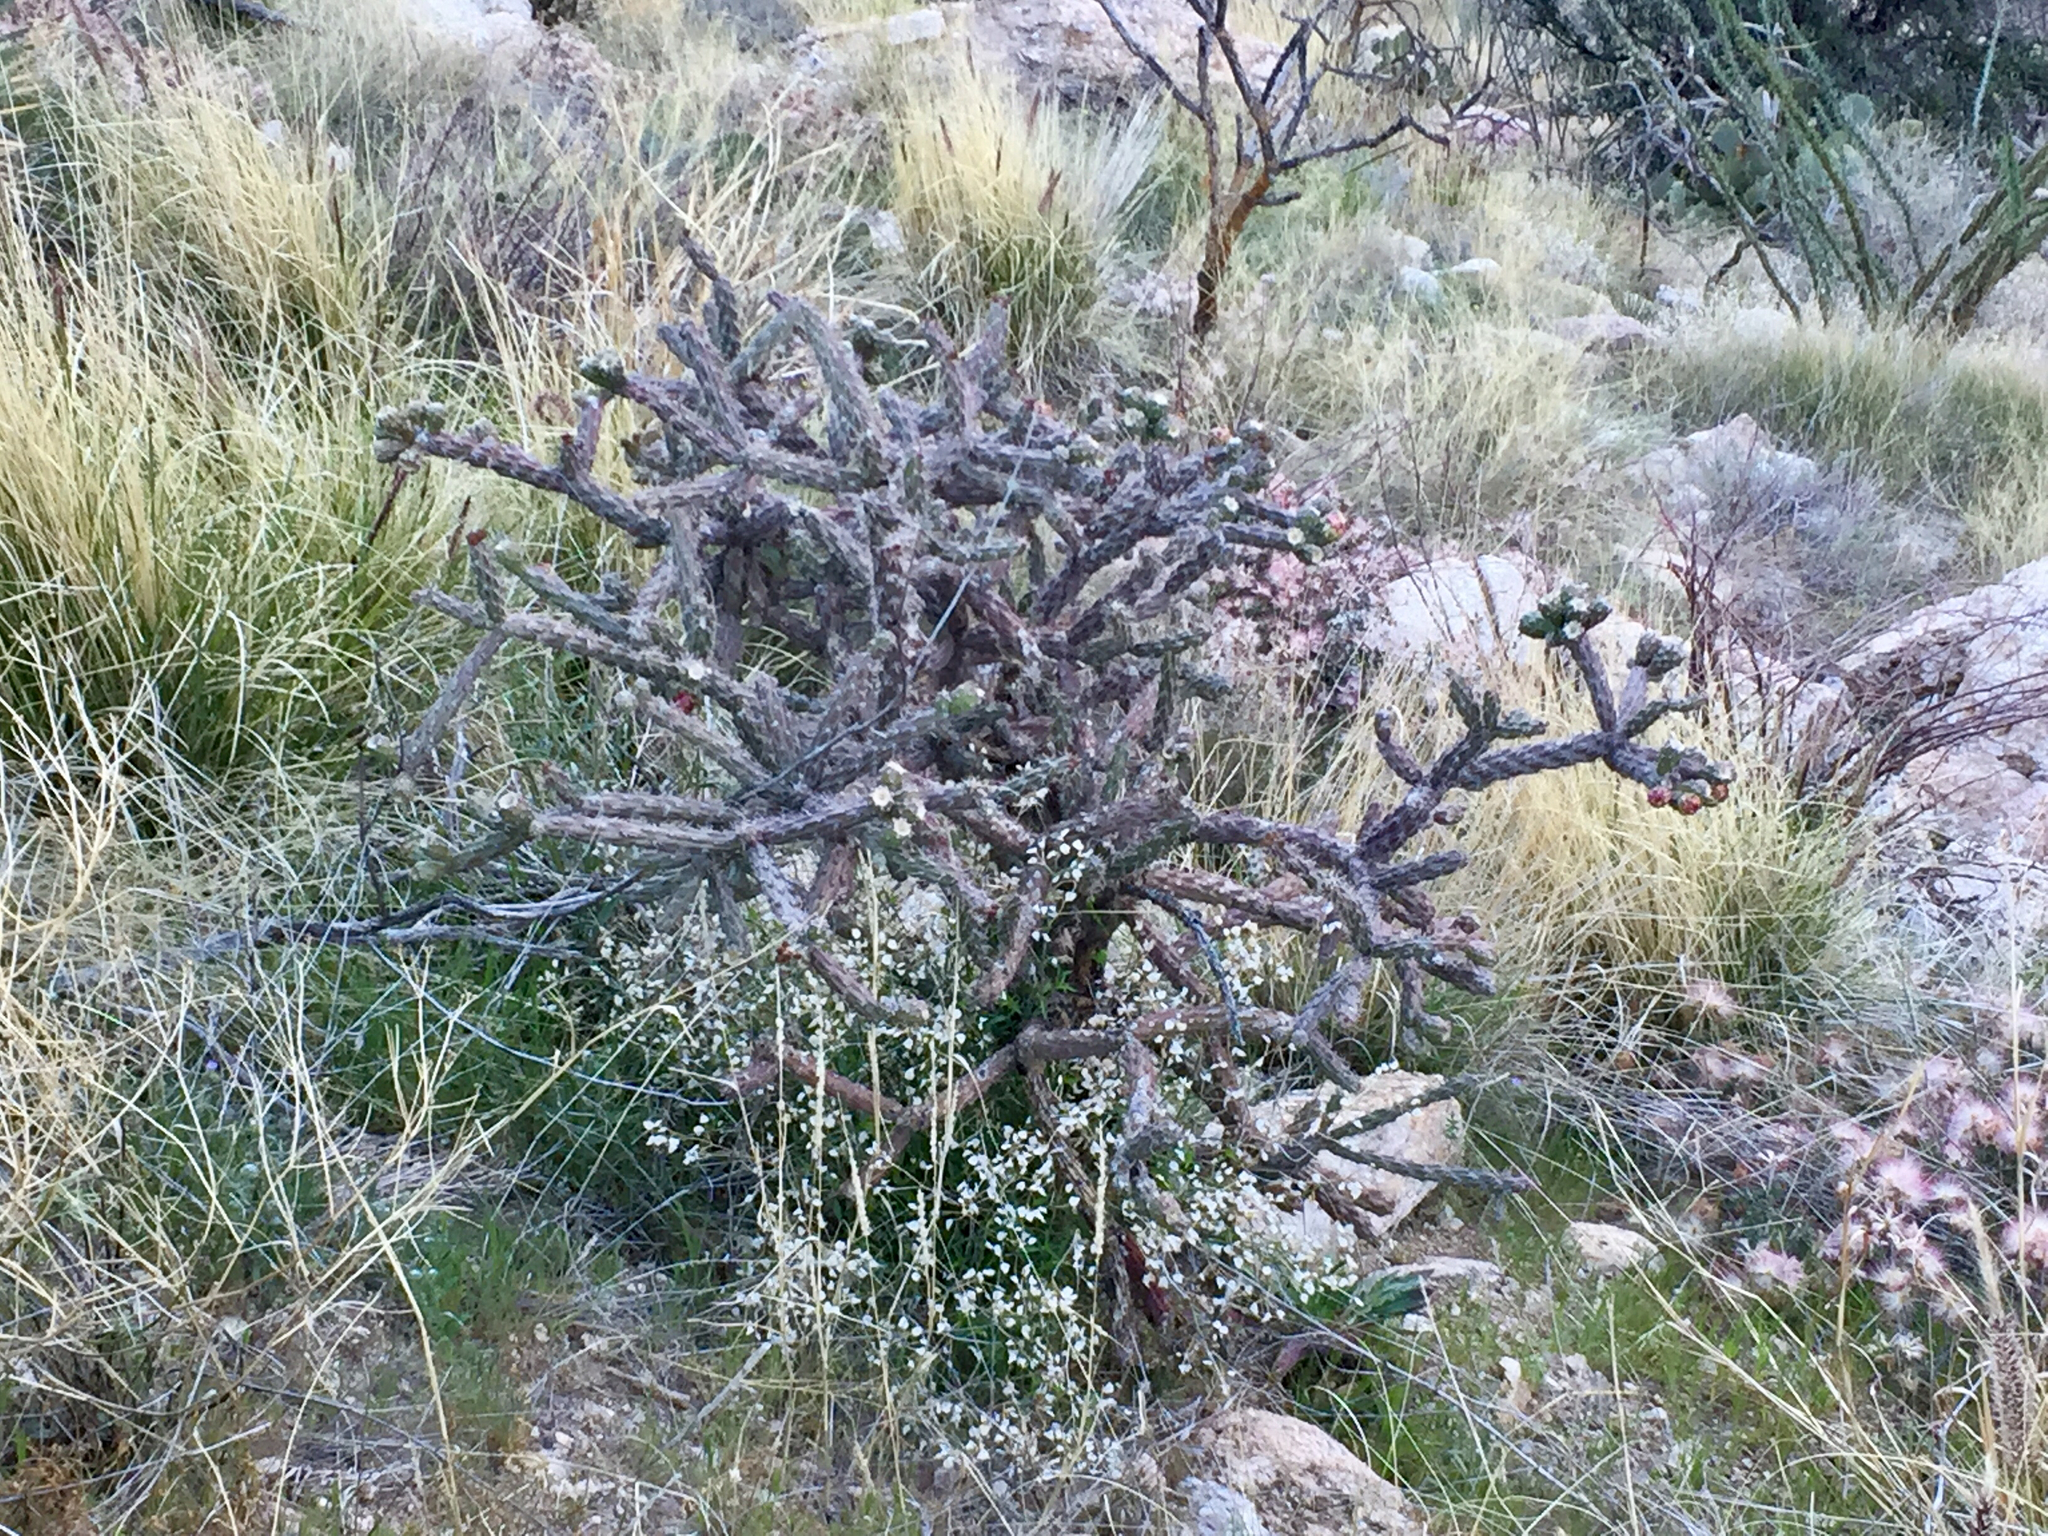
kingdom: Plantae
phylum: Tracheophyta
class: Magnoliopsida
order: Caryophyllales
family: Cactaceae
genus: Cylindropuntia
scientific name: Cylindropuntia thurberi
